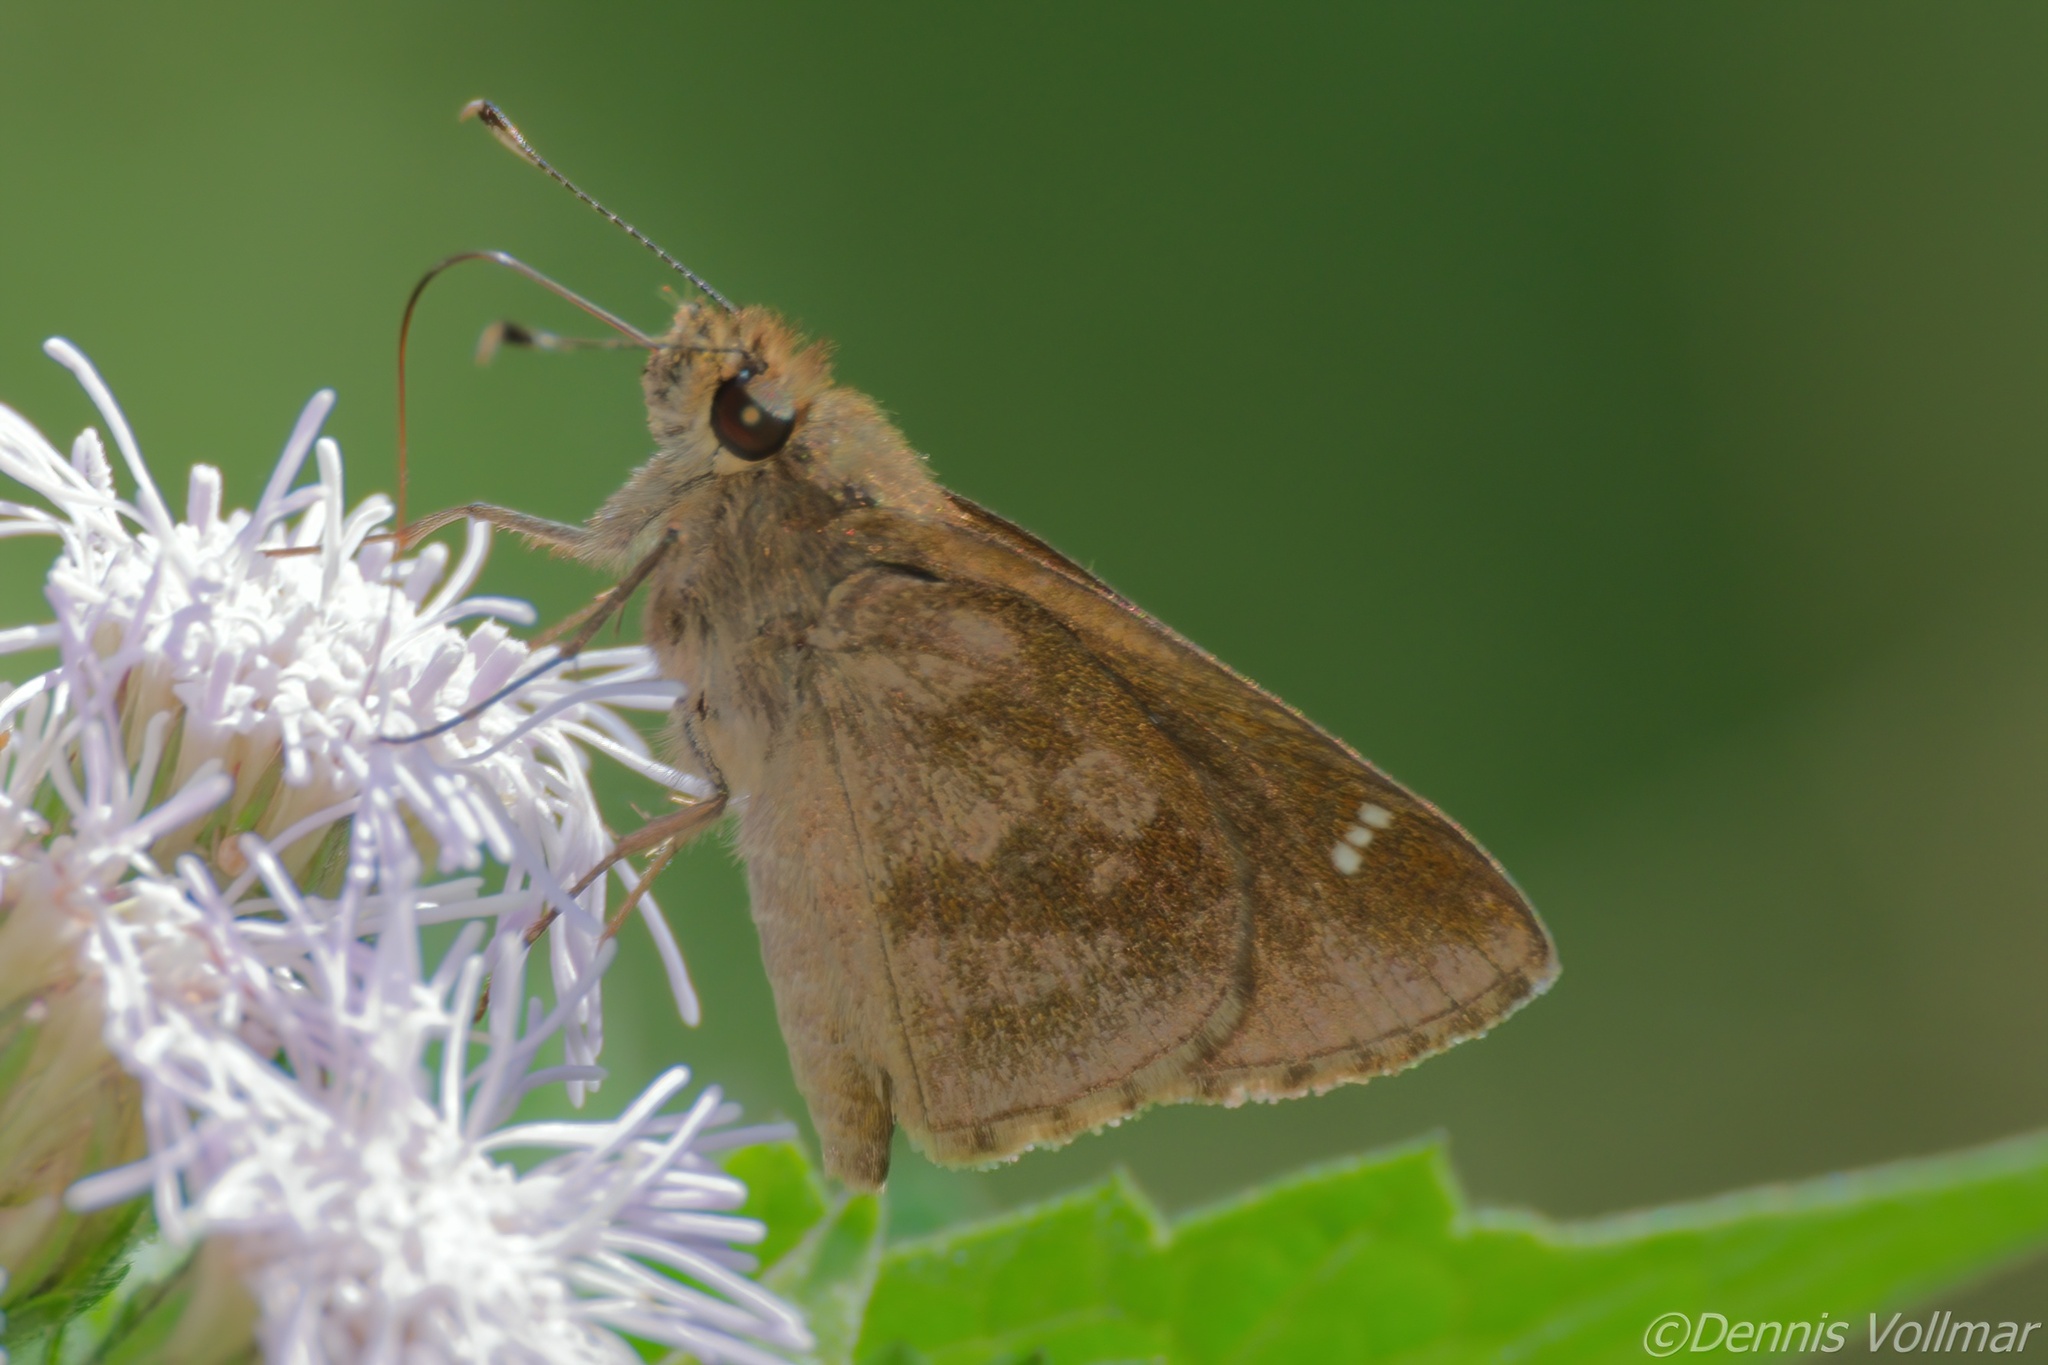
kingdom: Animalia
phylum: Arthropoda
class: Insecta
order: Lepidoptera
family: Hesperiidae
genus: Cymaenes
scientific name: Cymaenes
